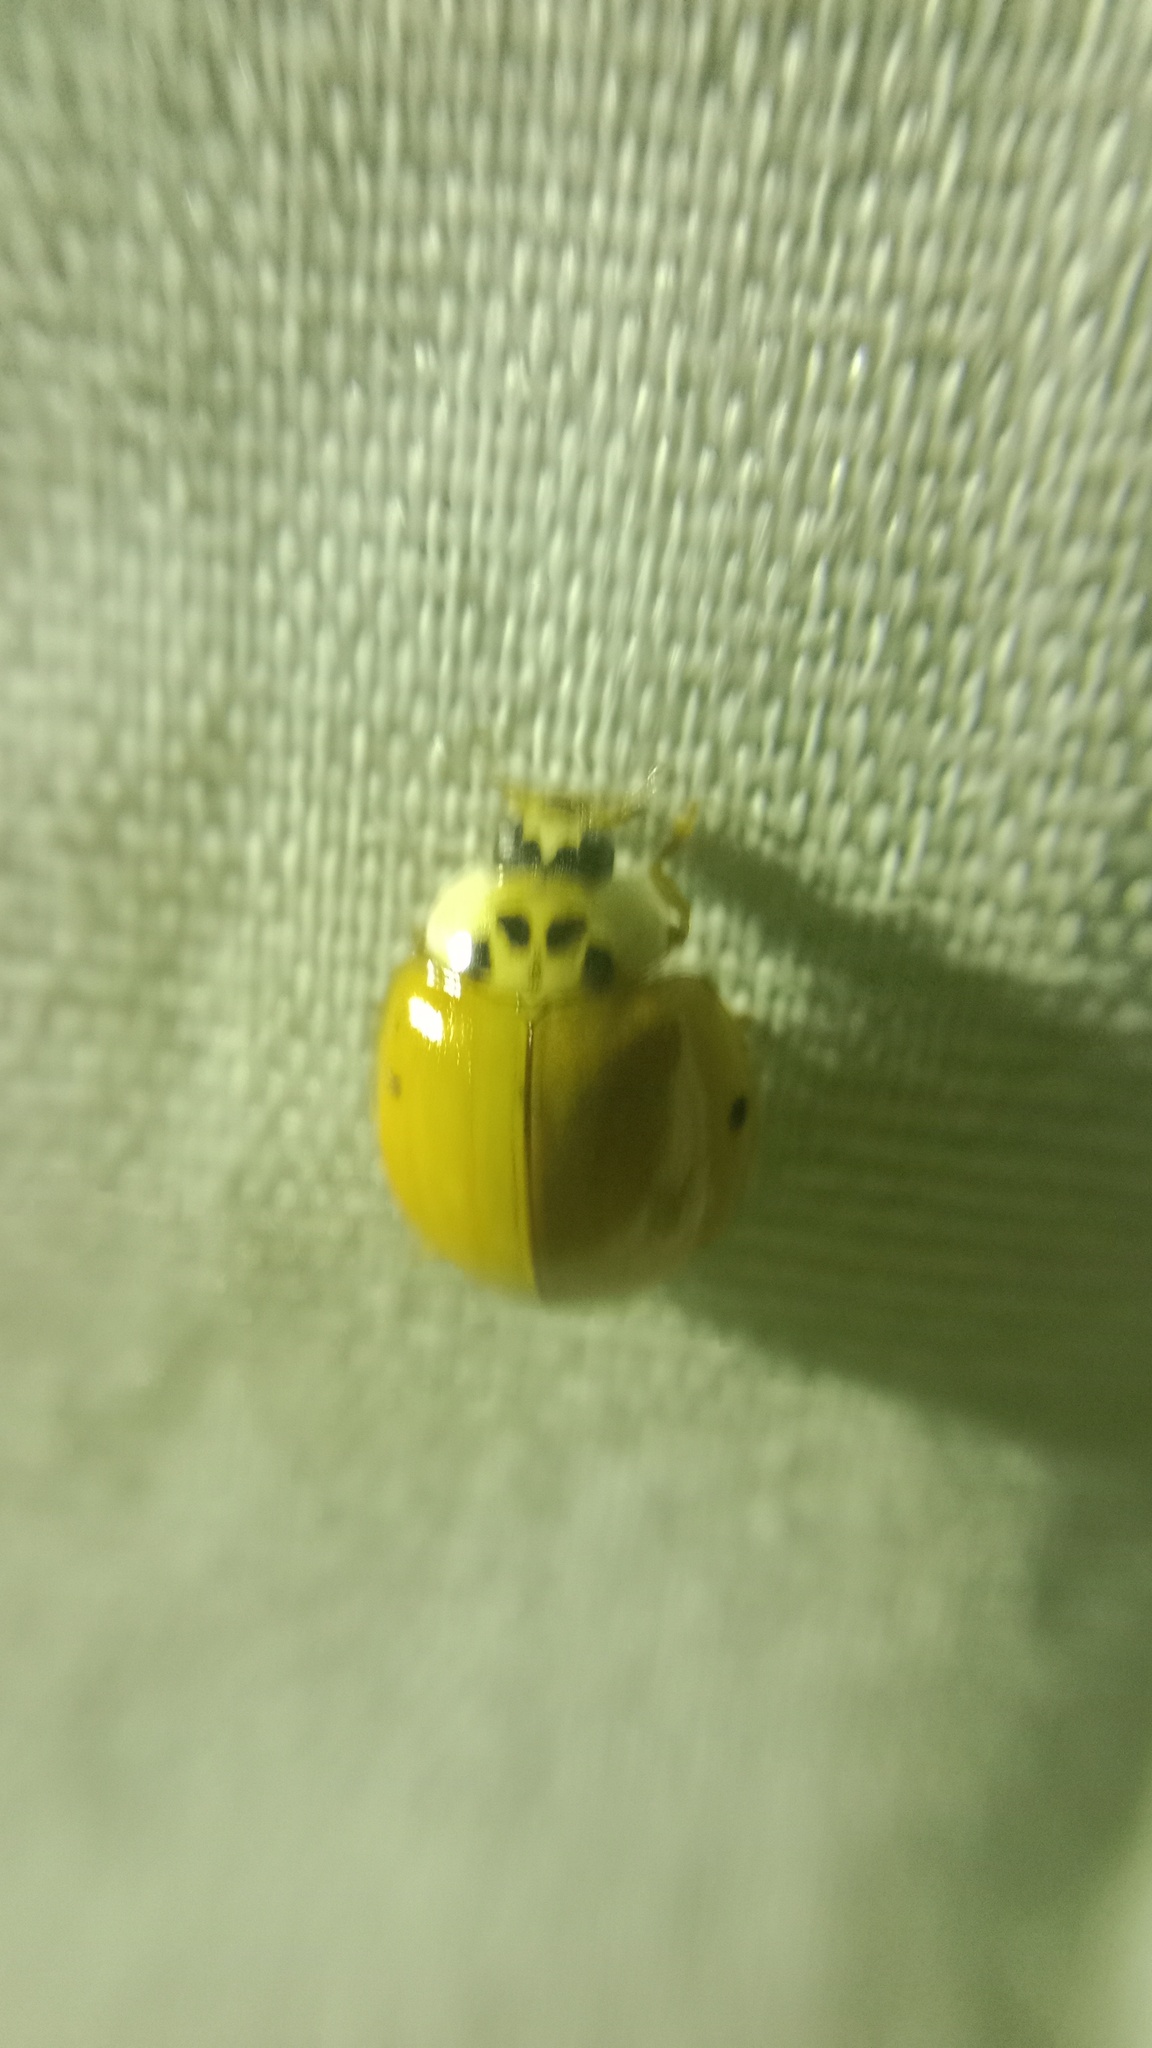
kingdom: Animalia
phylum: Arthropoda
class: Insecta
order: Coleoptera
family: Coccinellidae
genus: Harmonia
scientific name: Harmonia axyridis
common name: Harlequin ladybird
